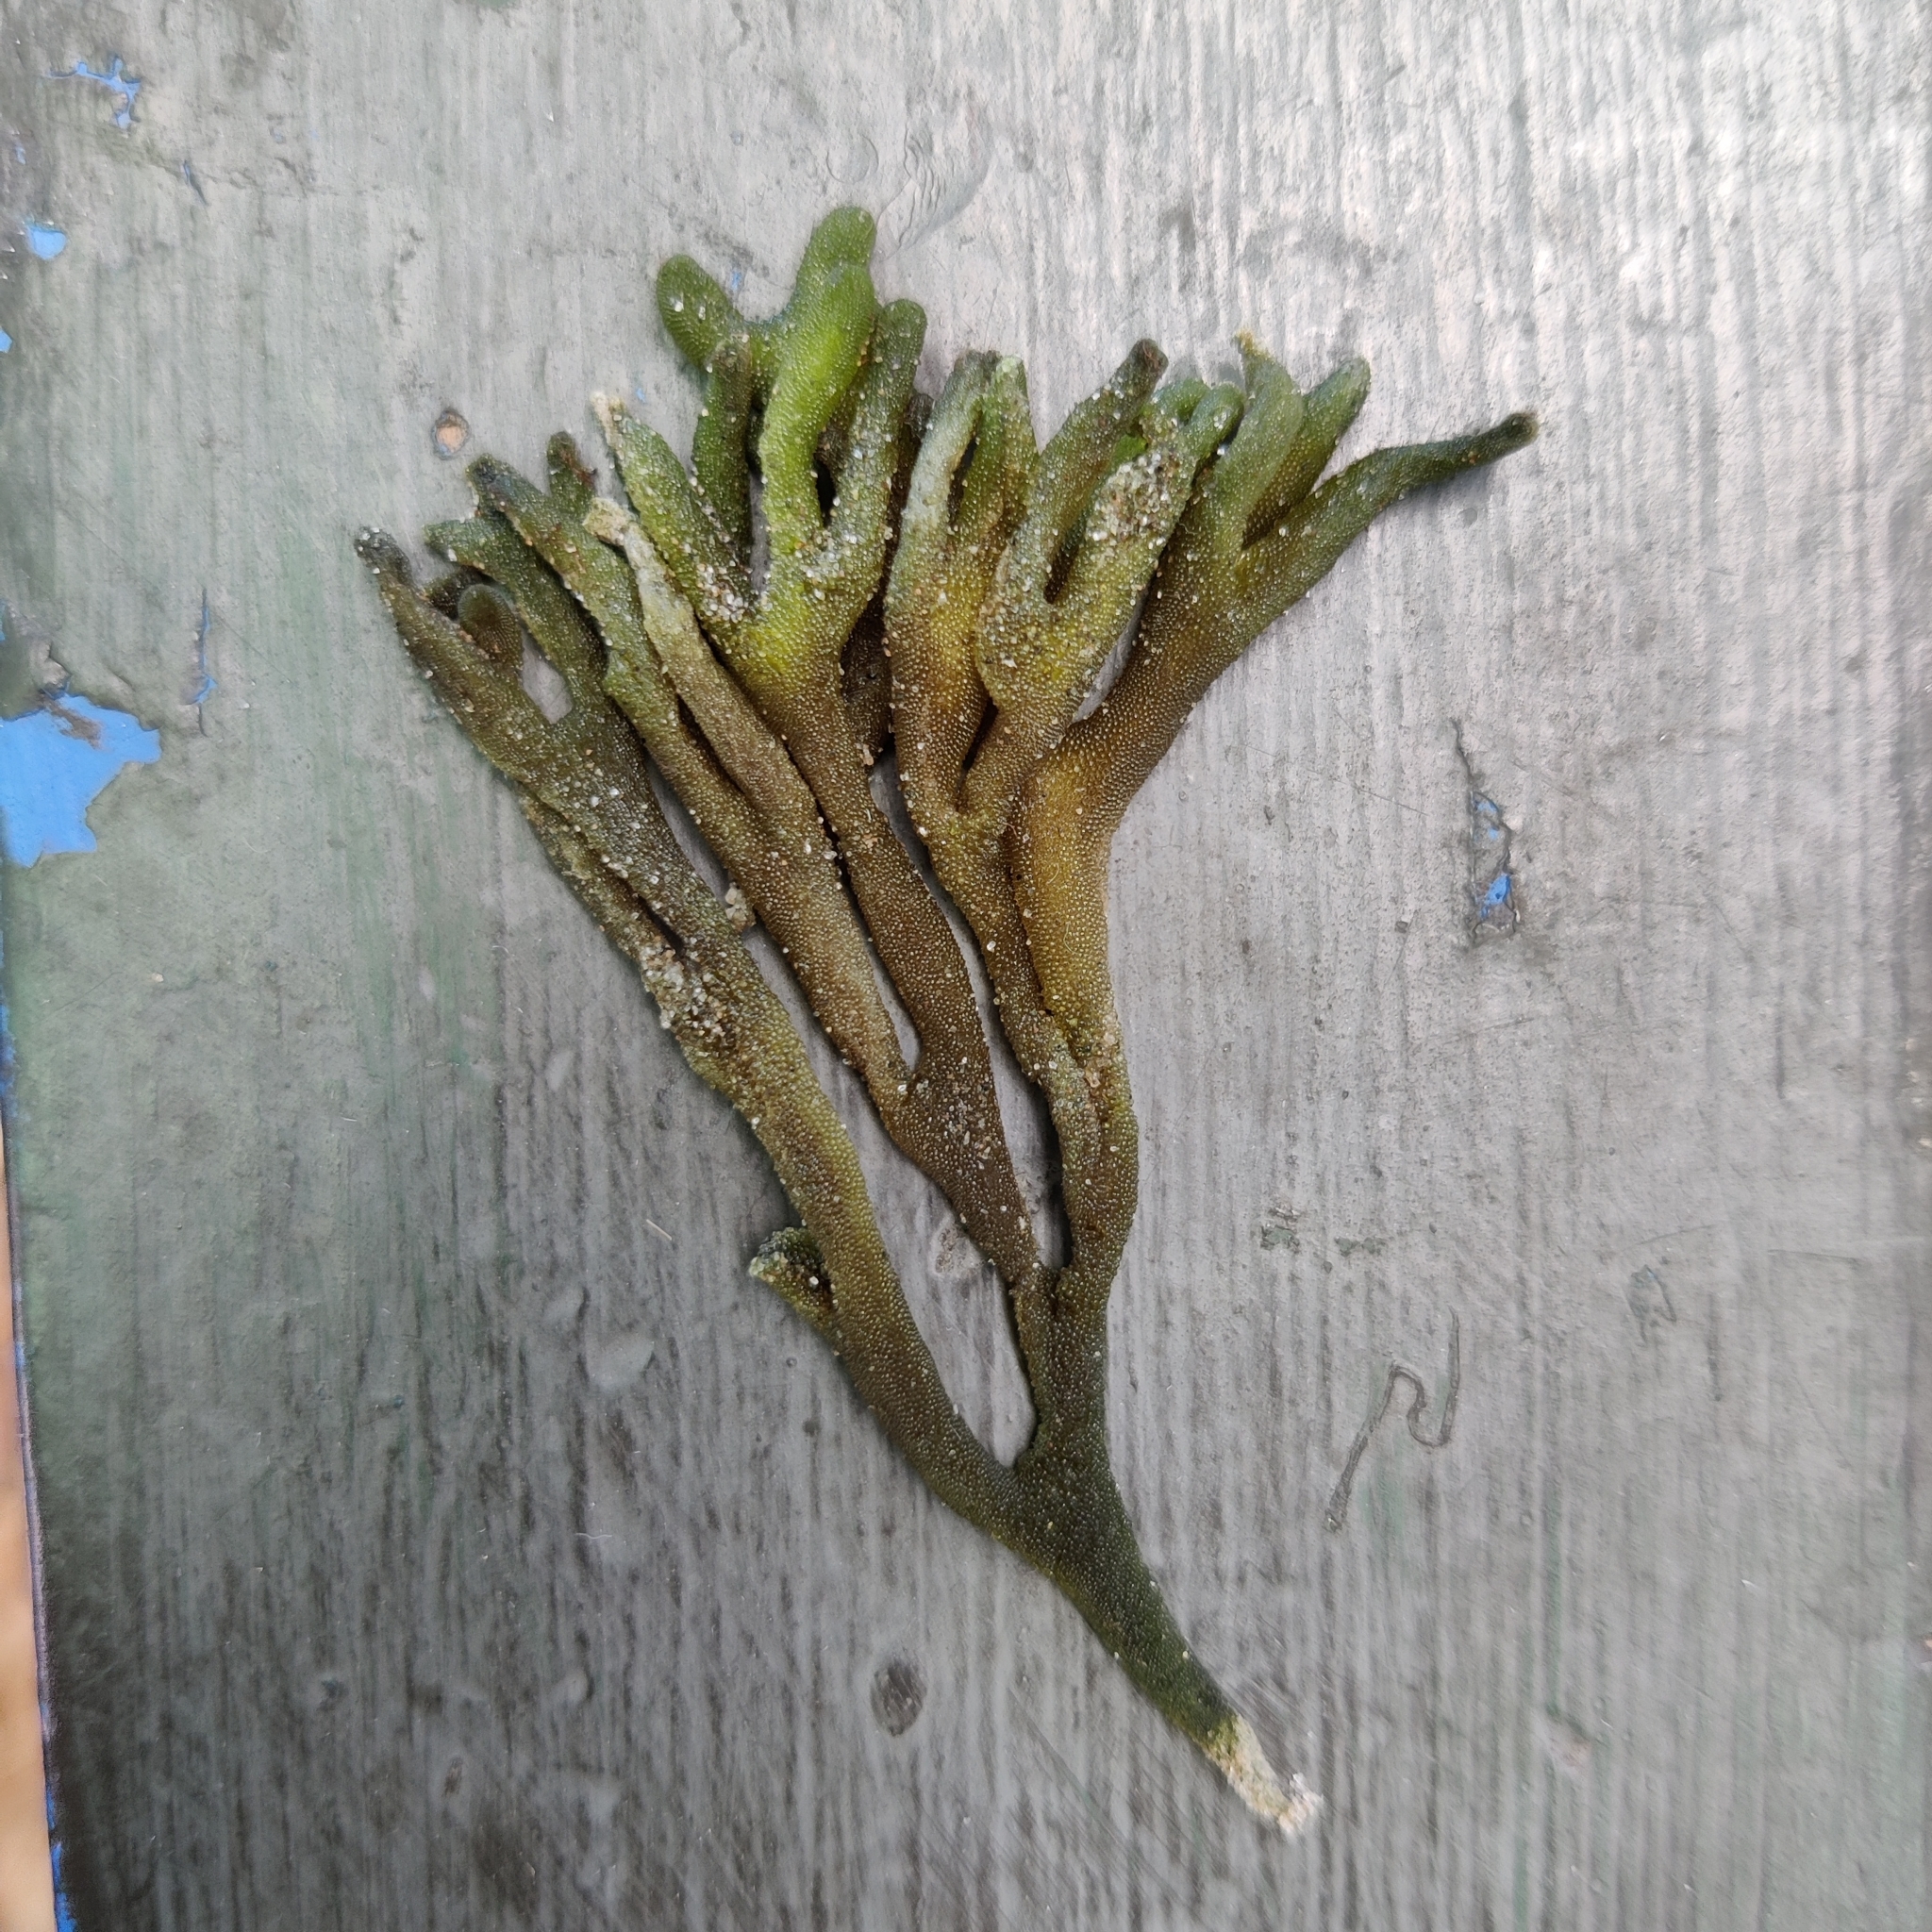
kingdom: Plantae
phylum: Chlorophyta
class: Ulvophyceae
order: Bryopsidales
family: Codiaceae
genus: Codium
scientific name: Codium fragile
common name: Dead man's fingers
